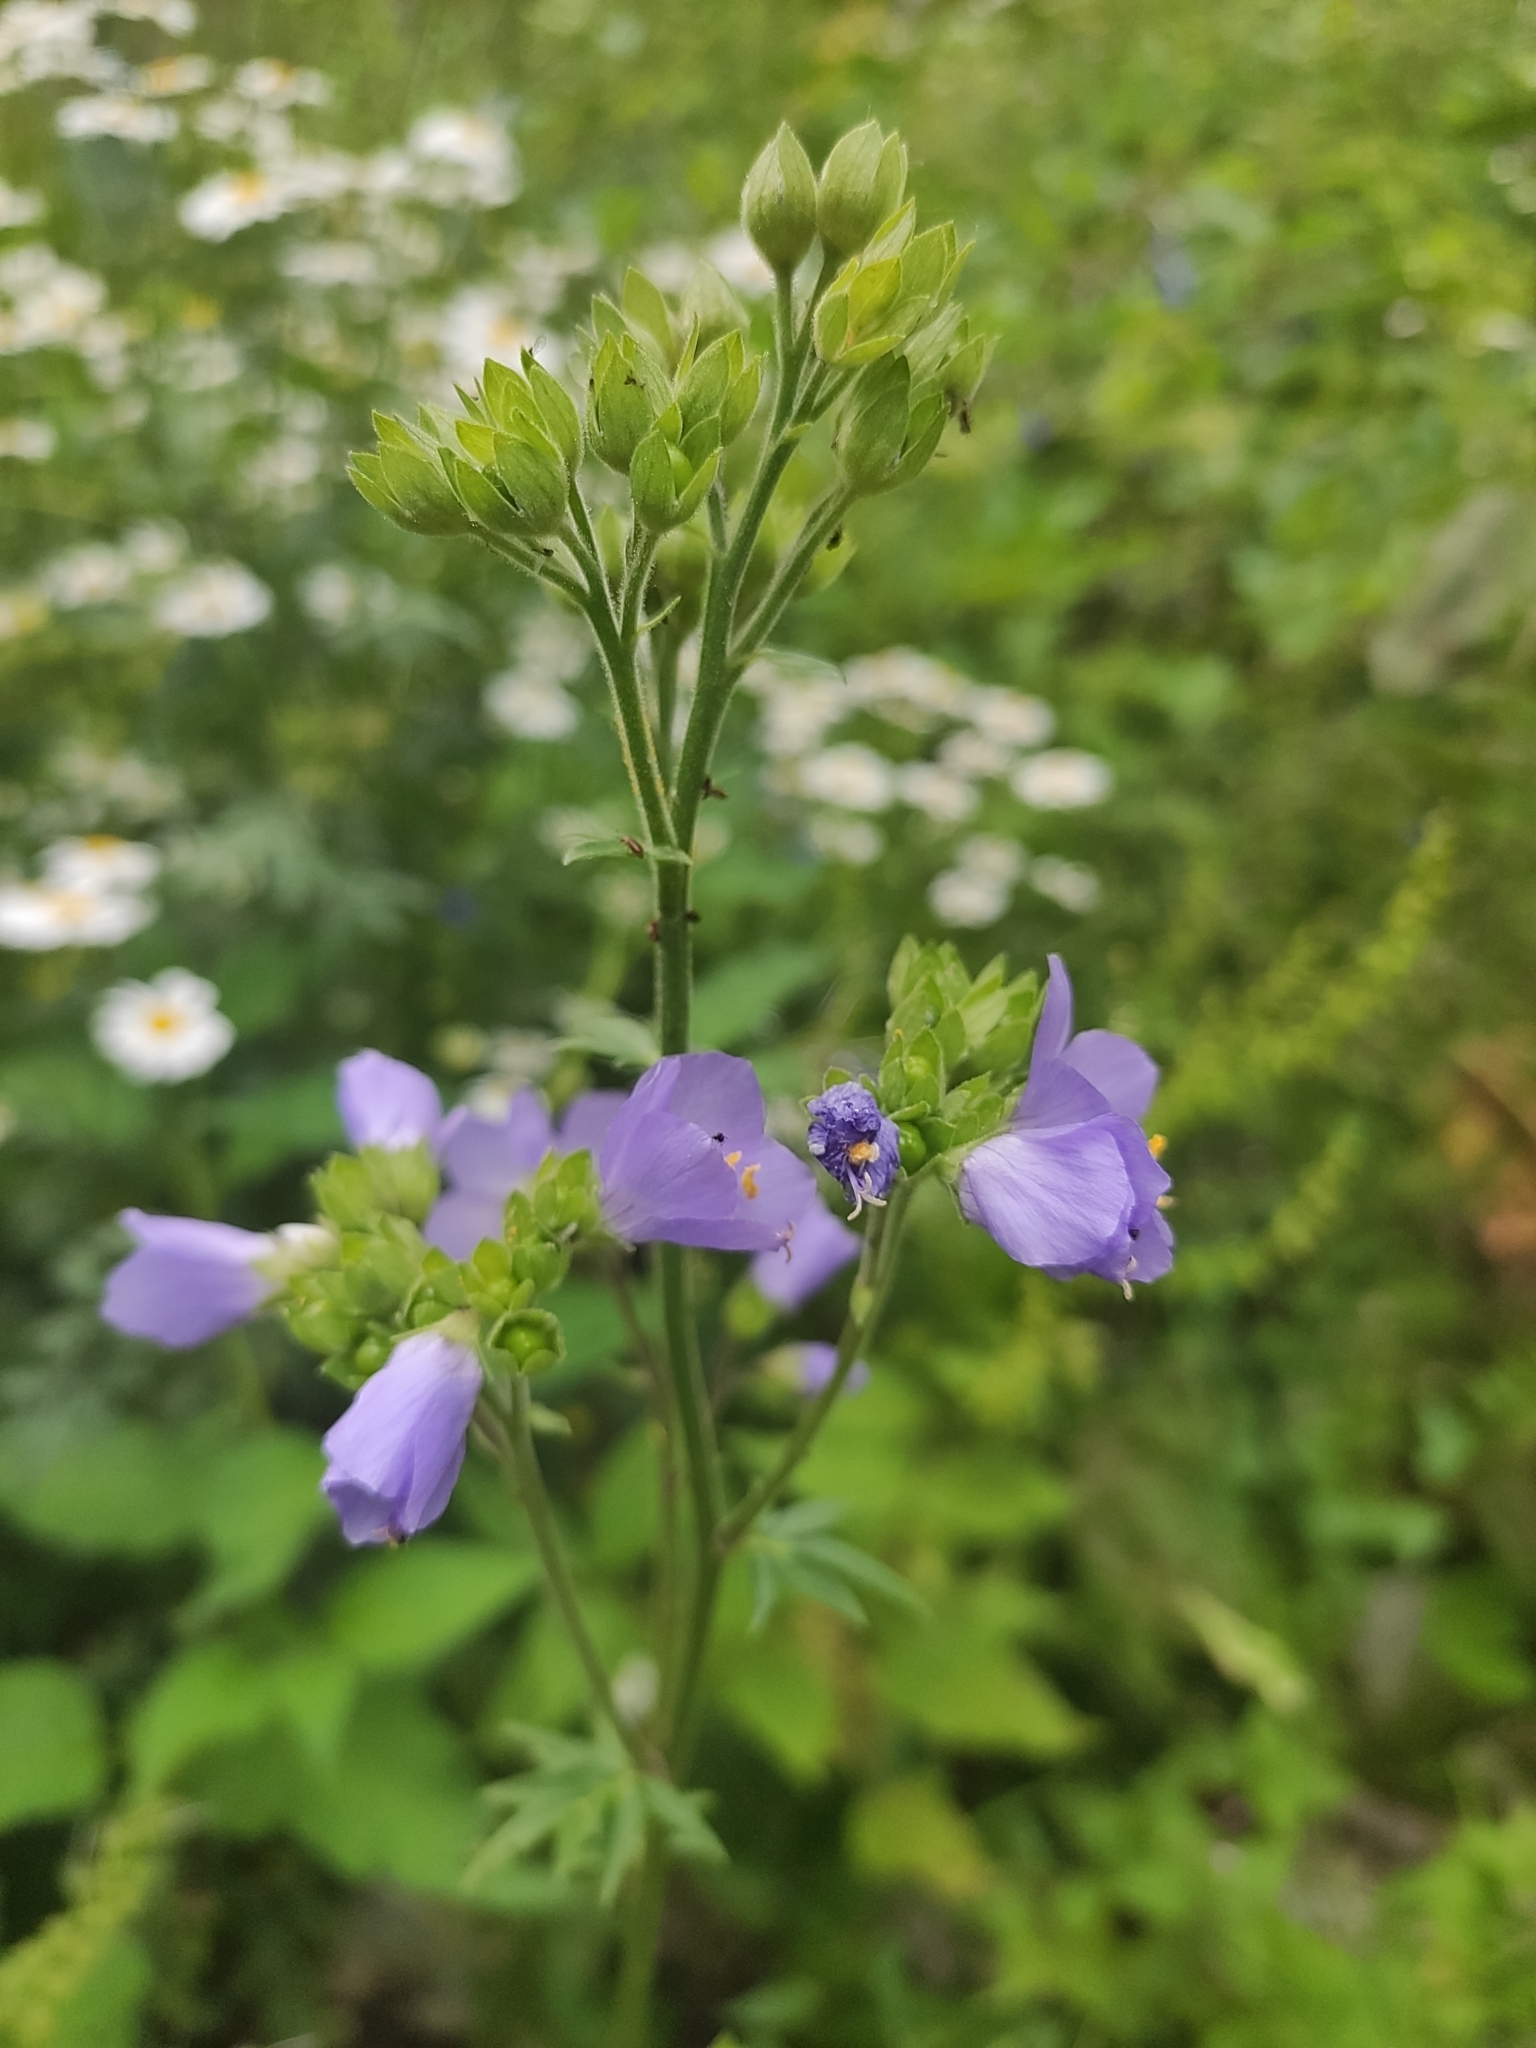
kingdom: Plantae
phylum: Tracheophyta
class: Magnoliopsida
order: Ericales
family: Polemoniaceae
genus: Polemonium
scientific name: Polemonium caeruleum
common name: Jacob's-ladder
